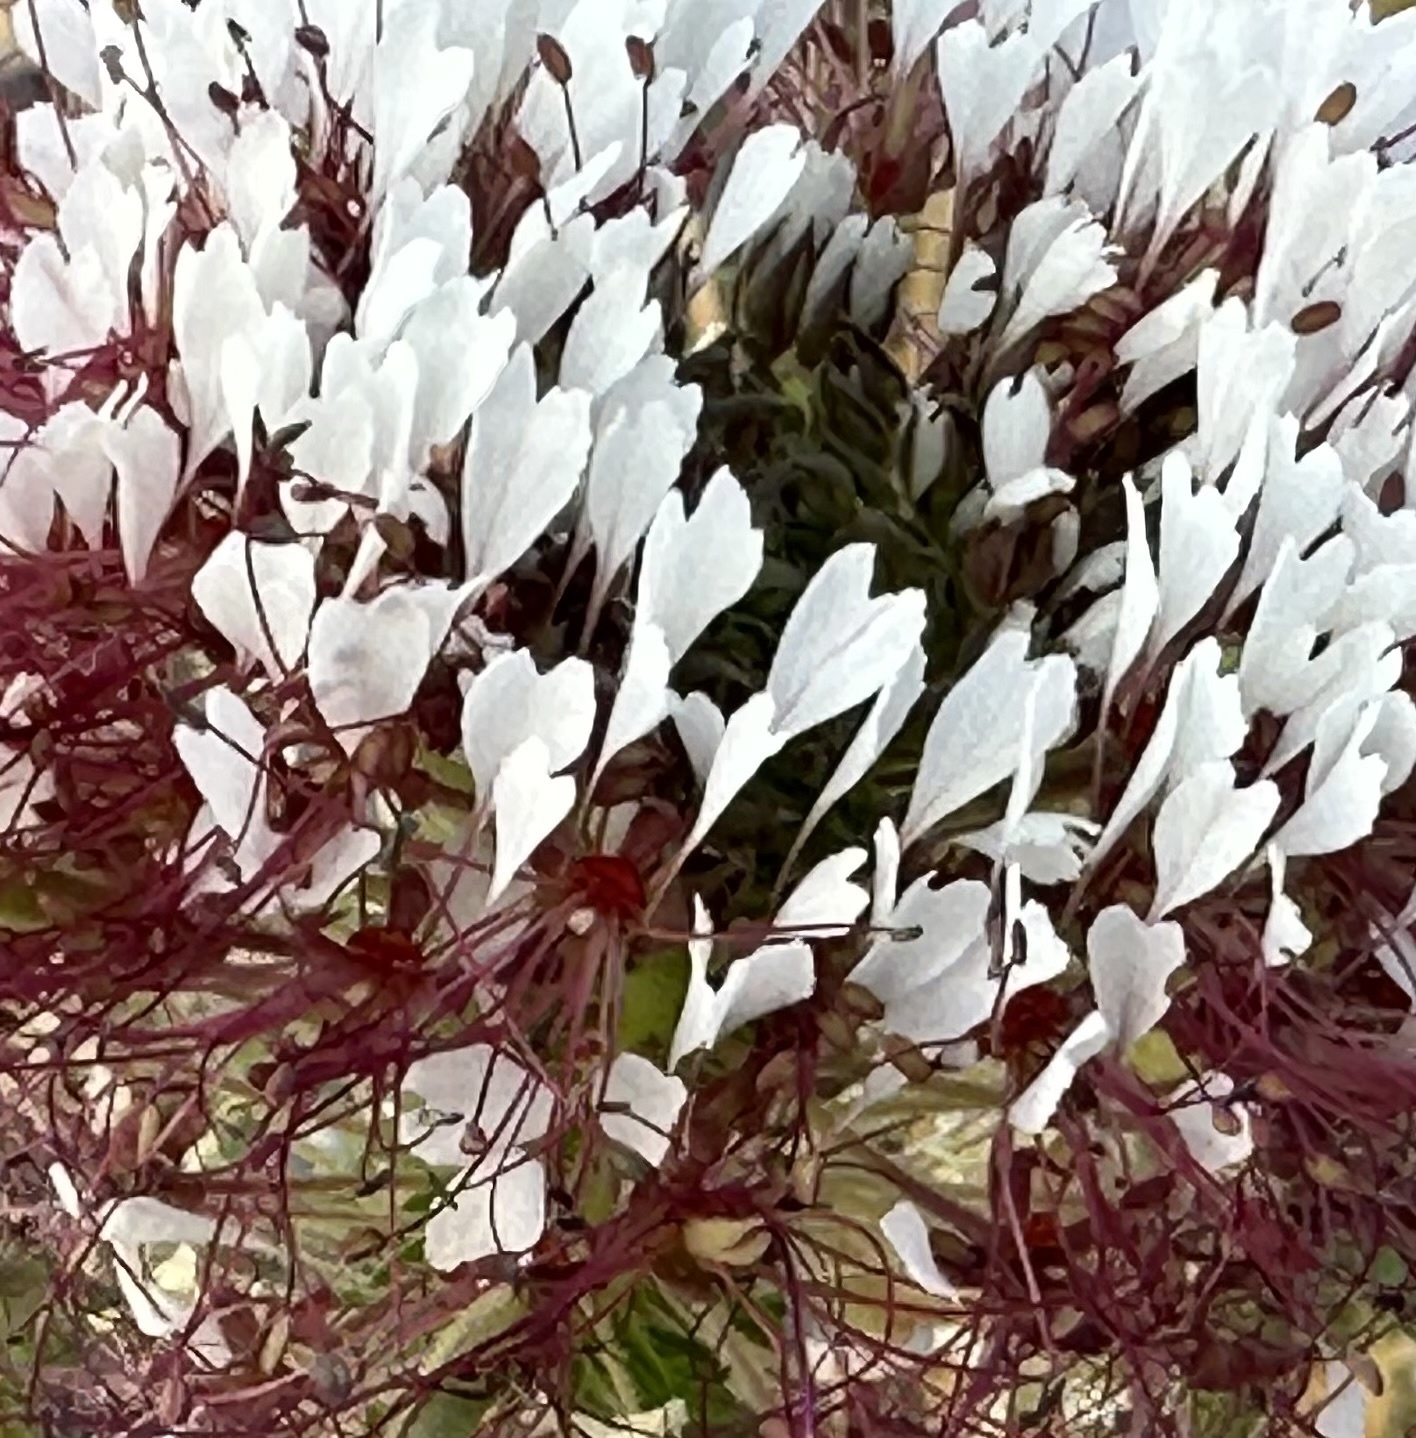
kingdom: Plantae
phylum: Tracheophyta
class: Magnoliopsida
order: Brassicales
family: Cleomaceae
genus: Polanisia
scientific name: Polanisia dodecandra
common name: Clammyweed
